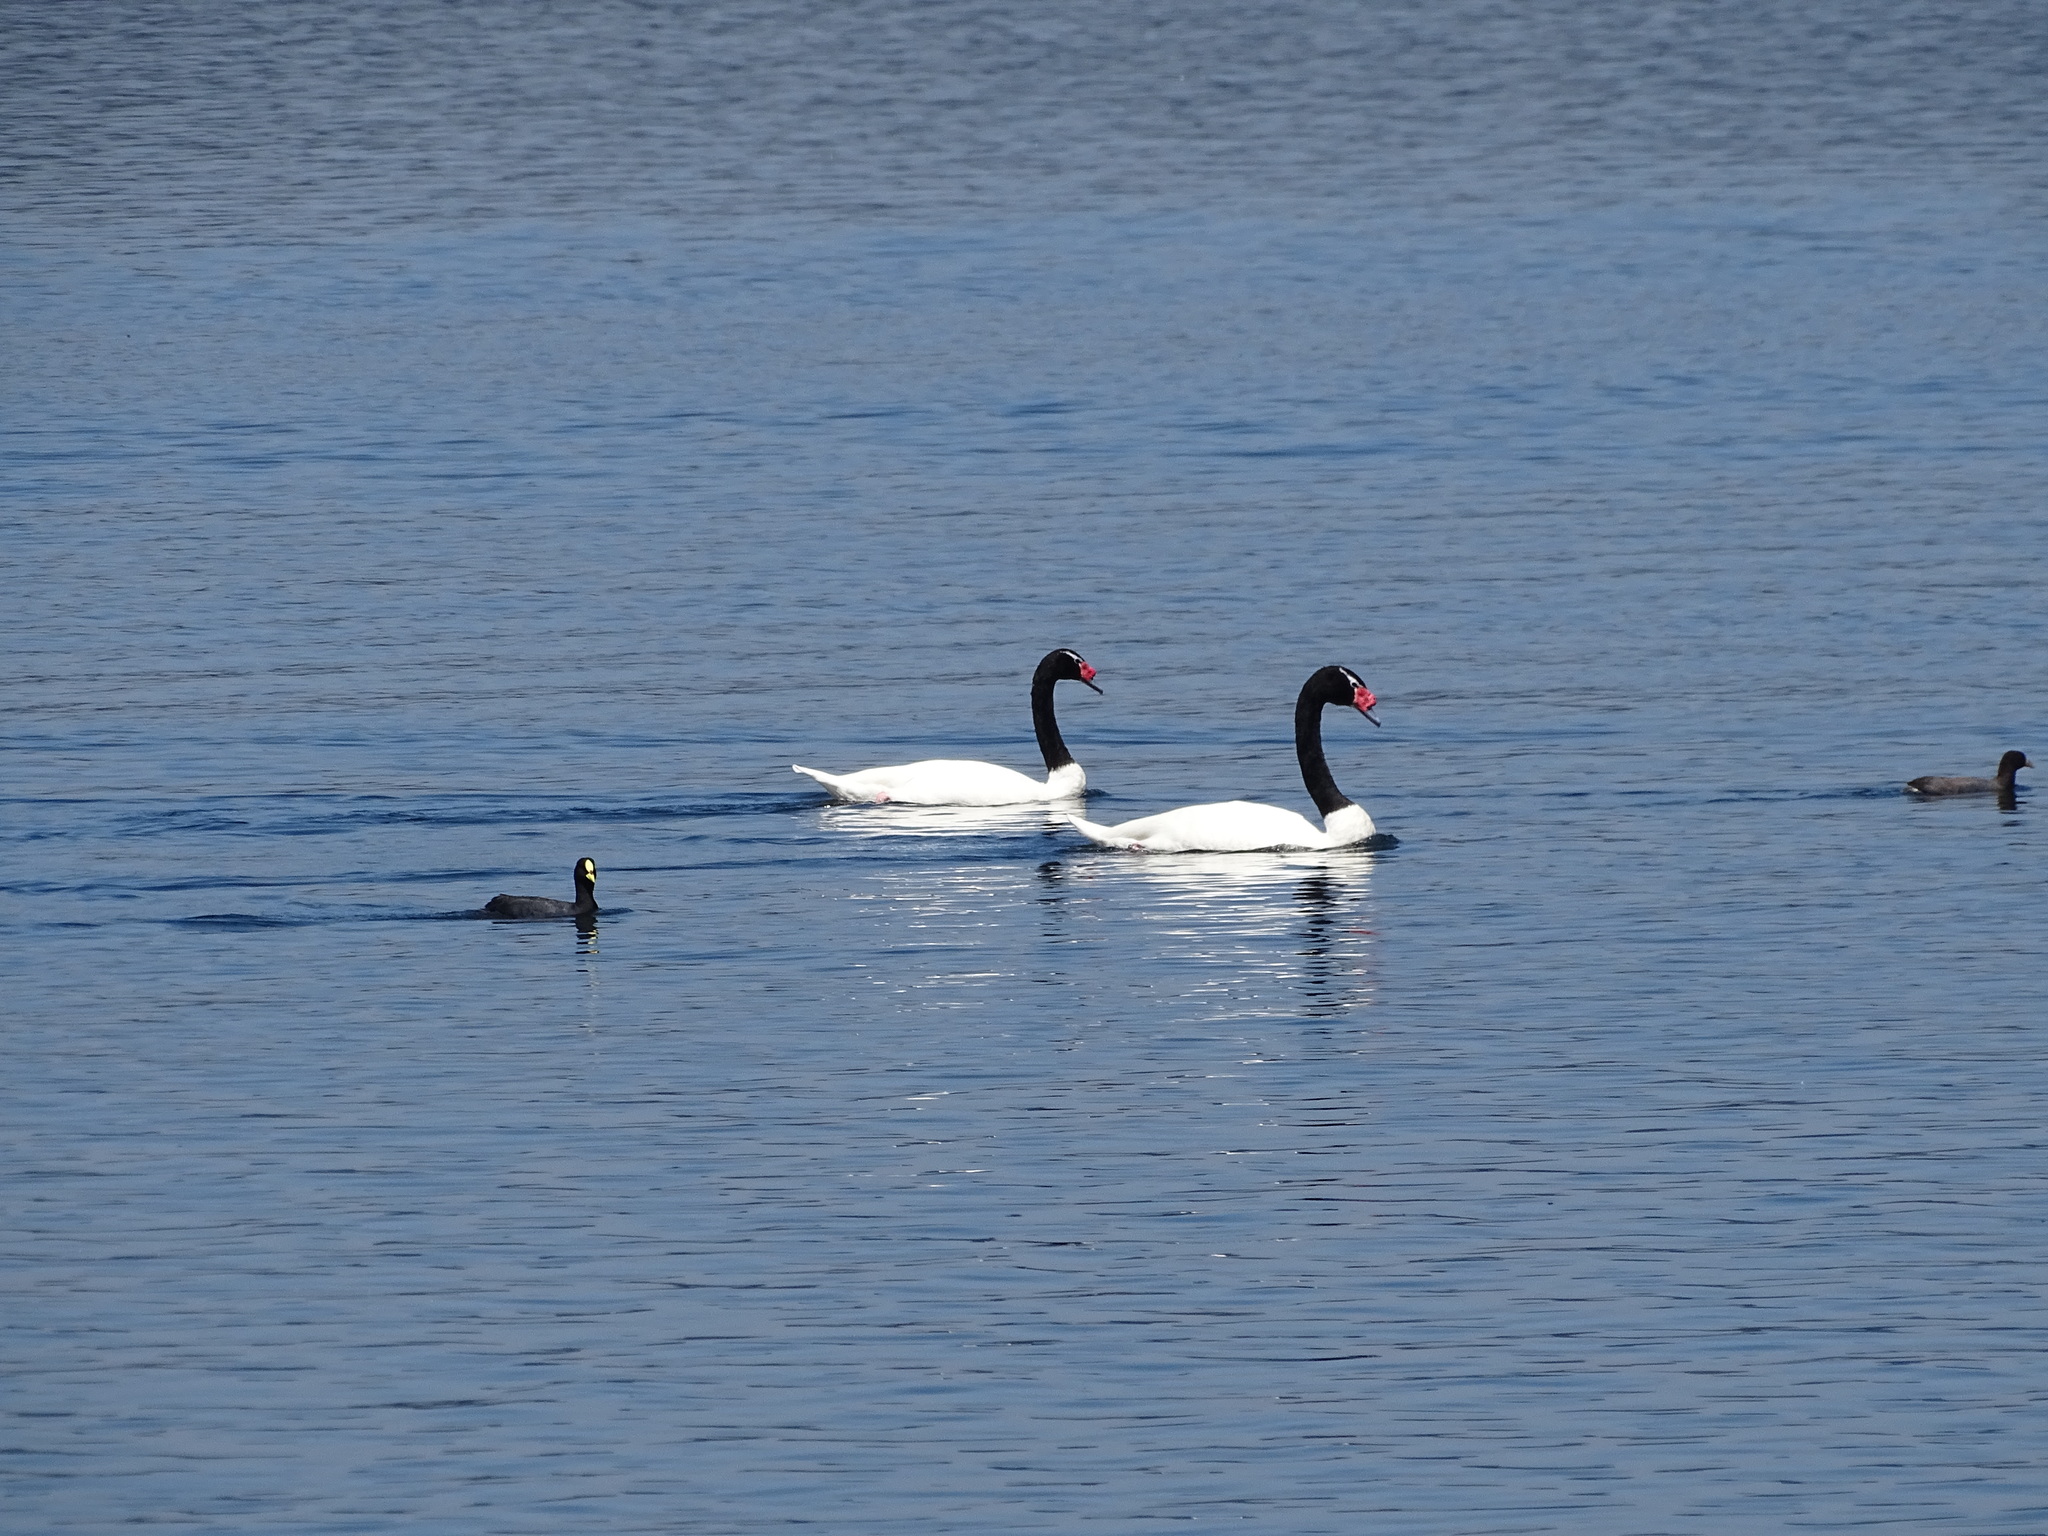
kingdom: Animalia
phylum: Chordata
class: Aves
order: Anseriformes
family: Anatidae
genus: Cygnus
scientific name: Cygnus melancoryphus
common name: Black-necked swan
